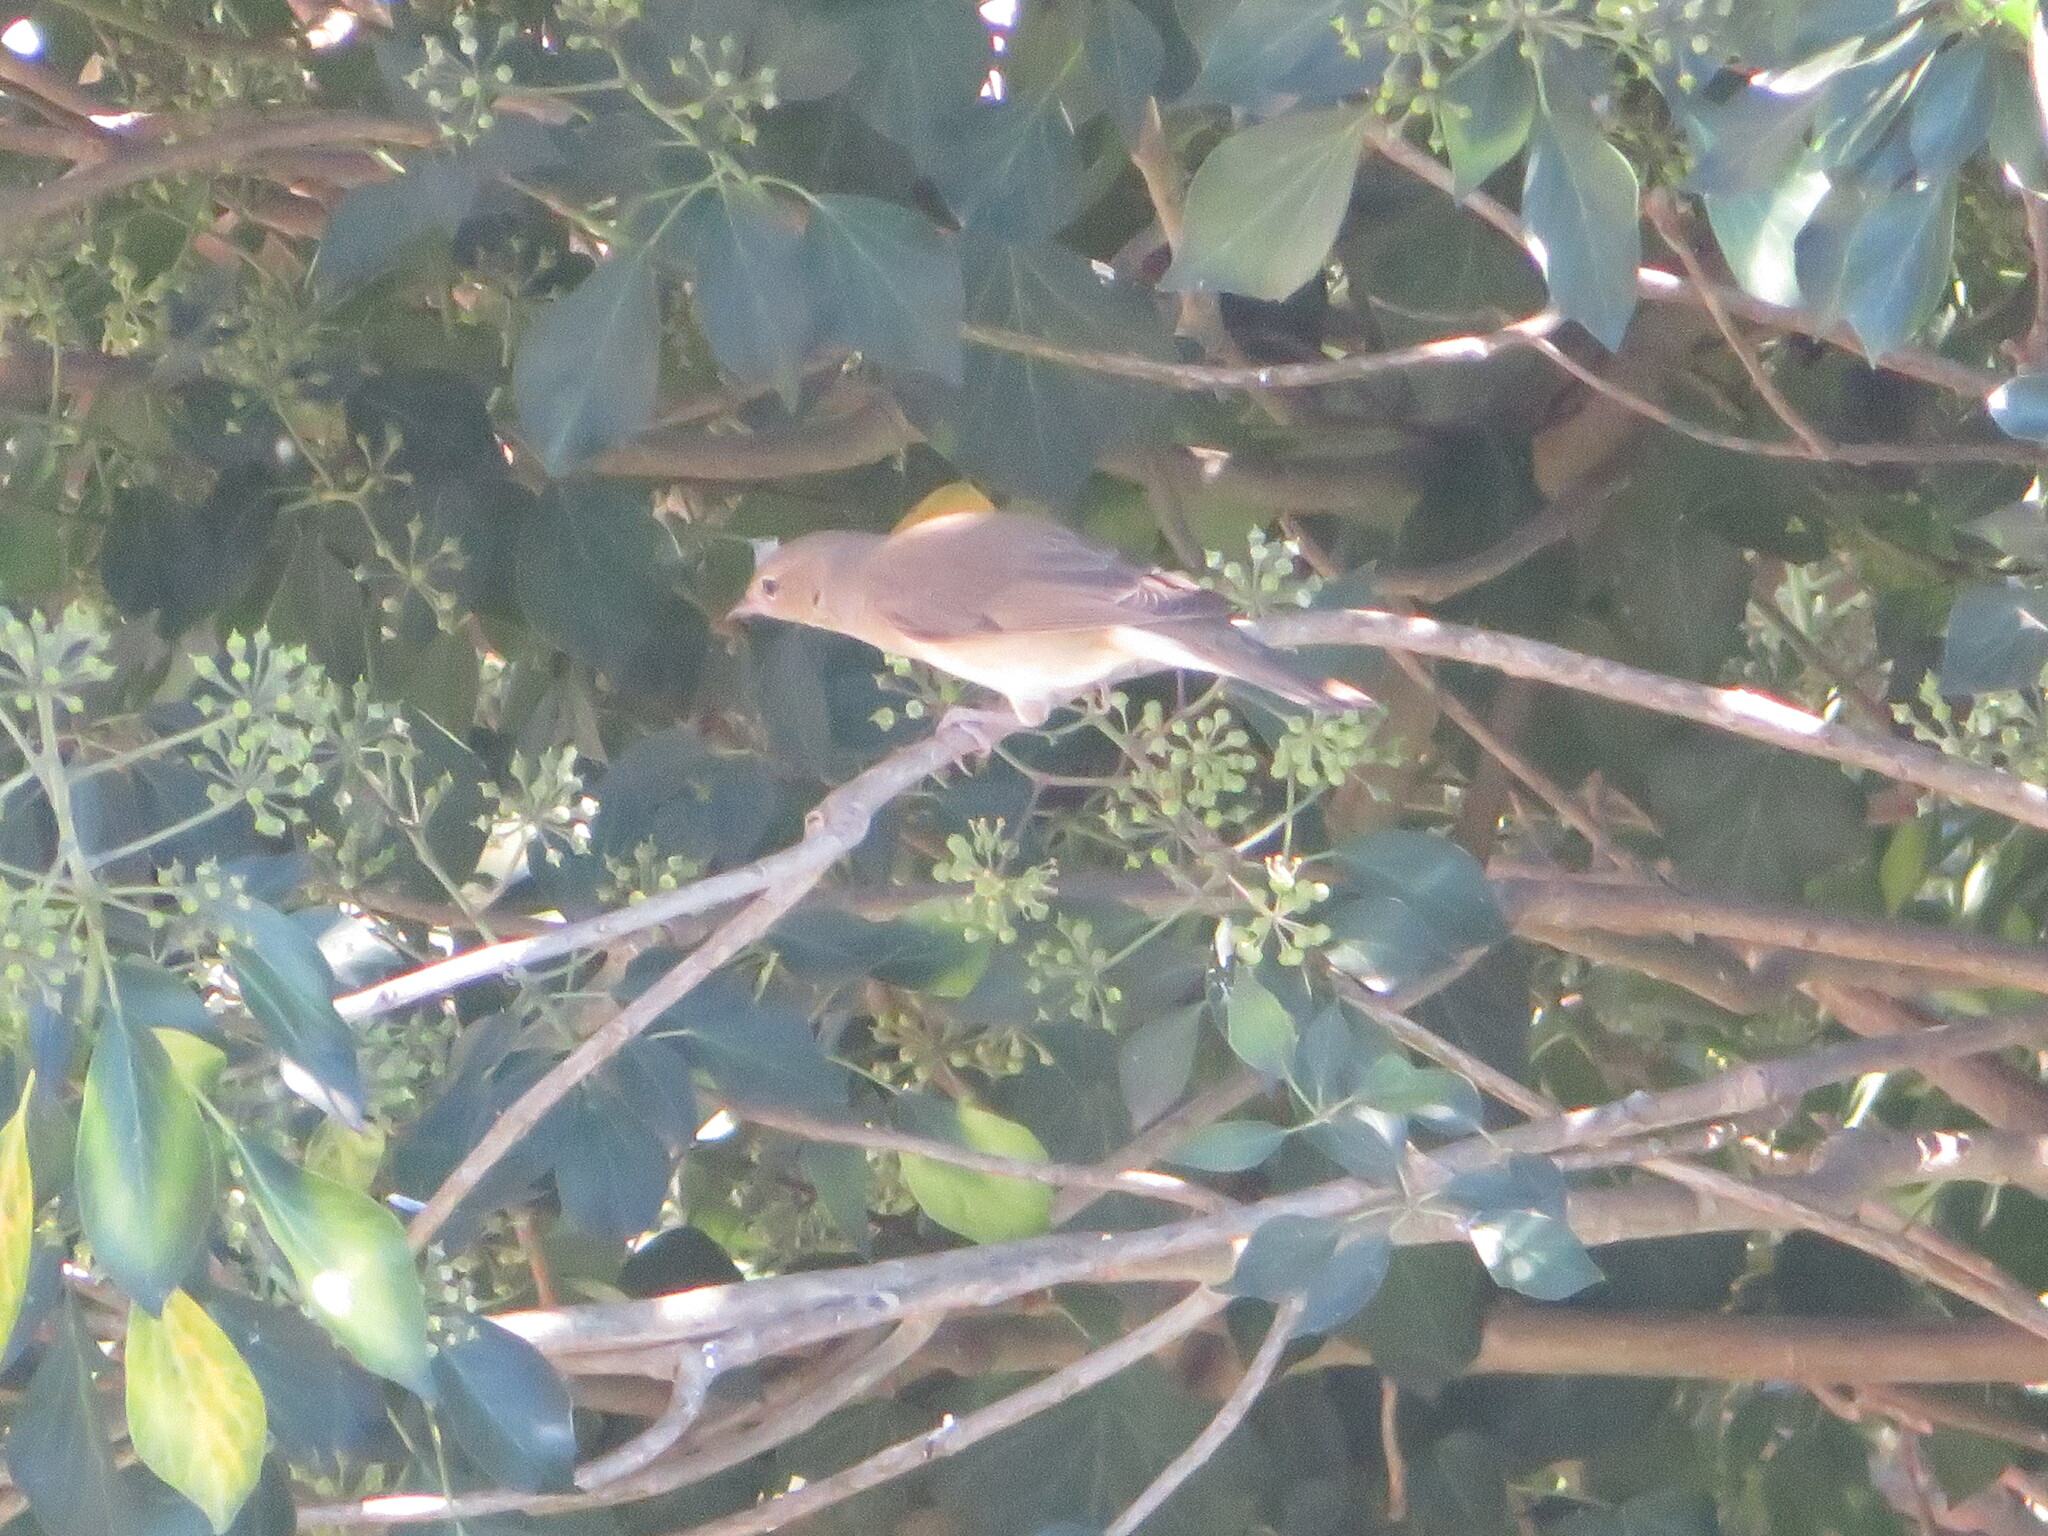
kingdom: Animalia
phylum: Chordata
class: Aves
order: Passeriformes
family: Sylviidae
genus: Sylvia
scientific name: Sylvia borin
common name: Garden warbler
